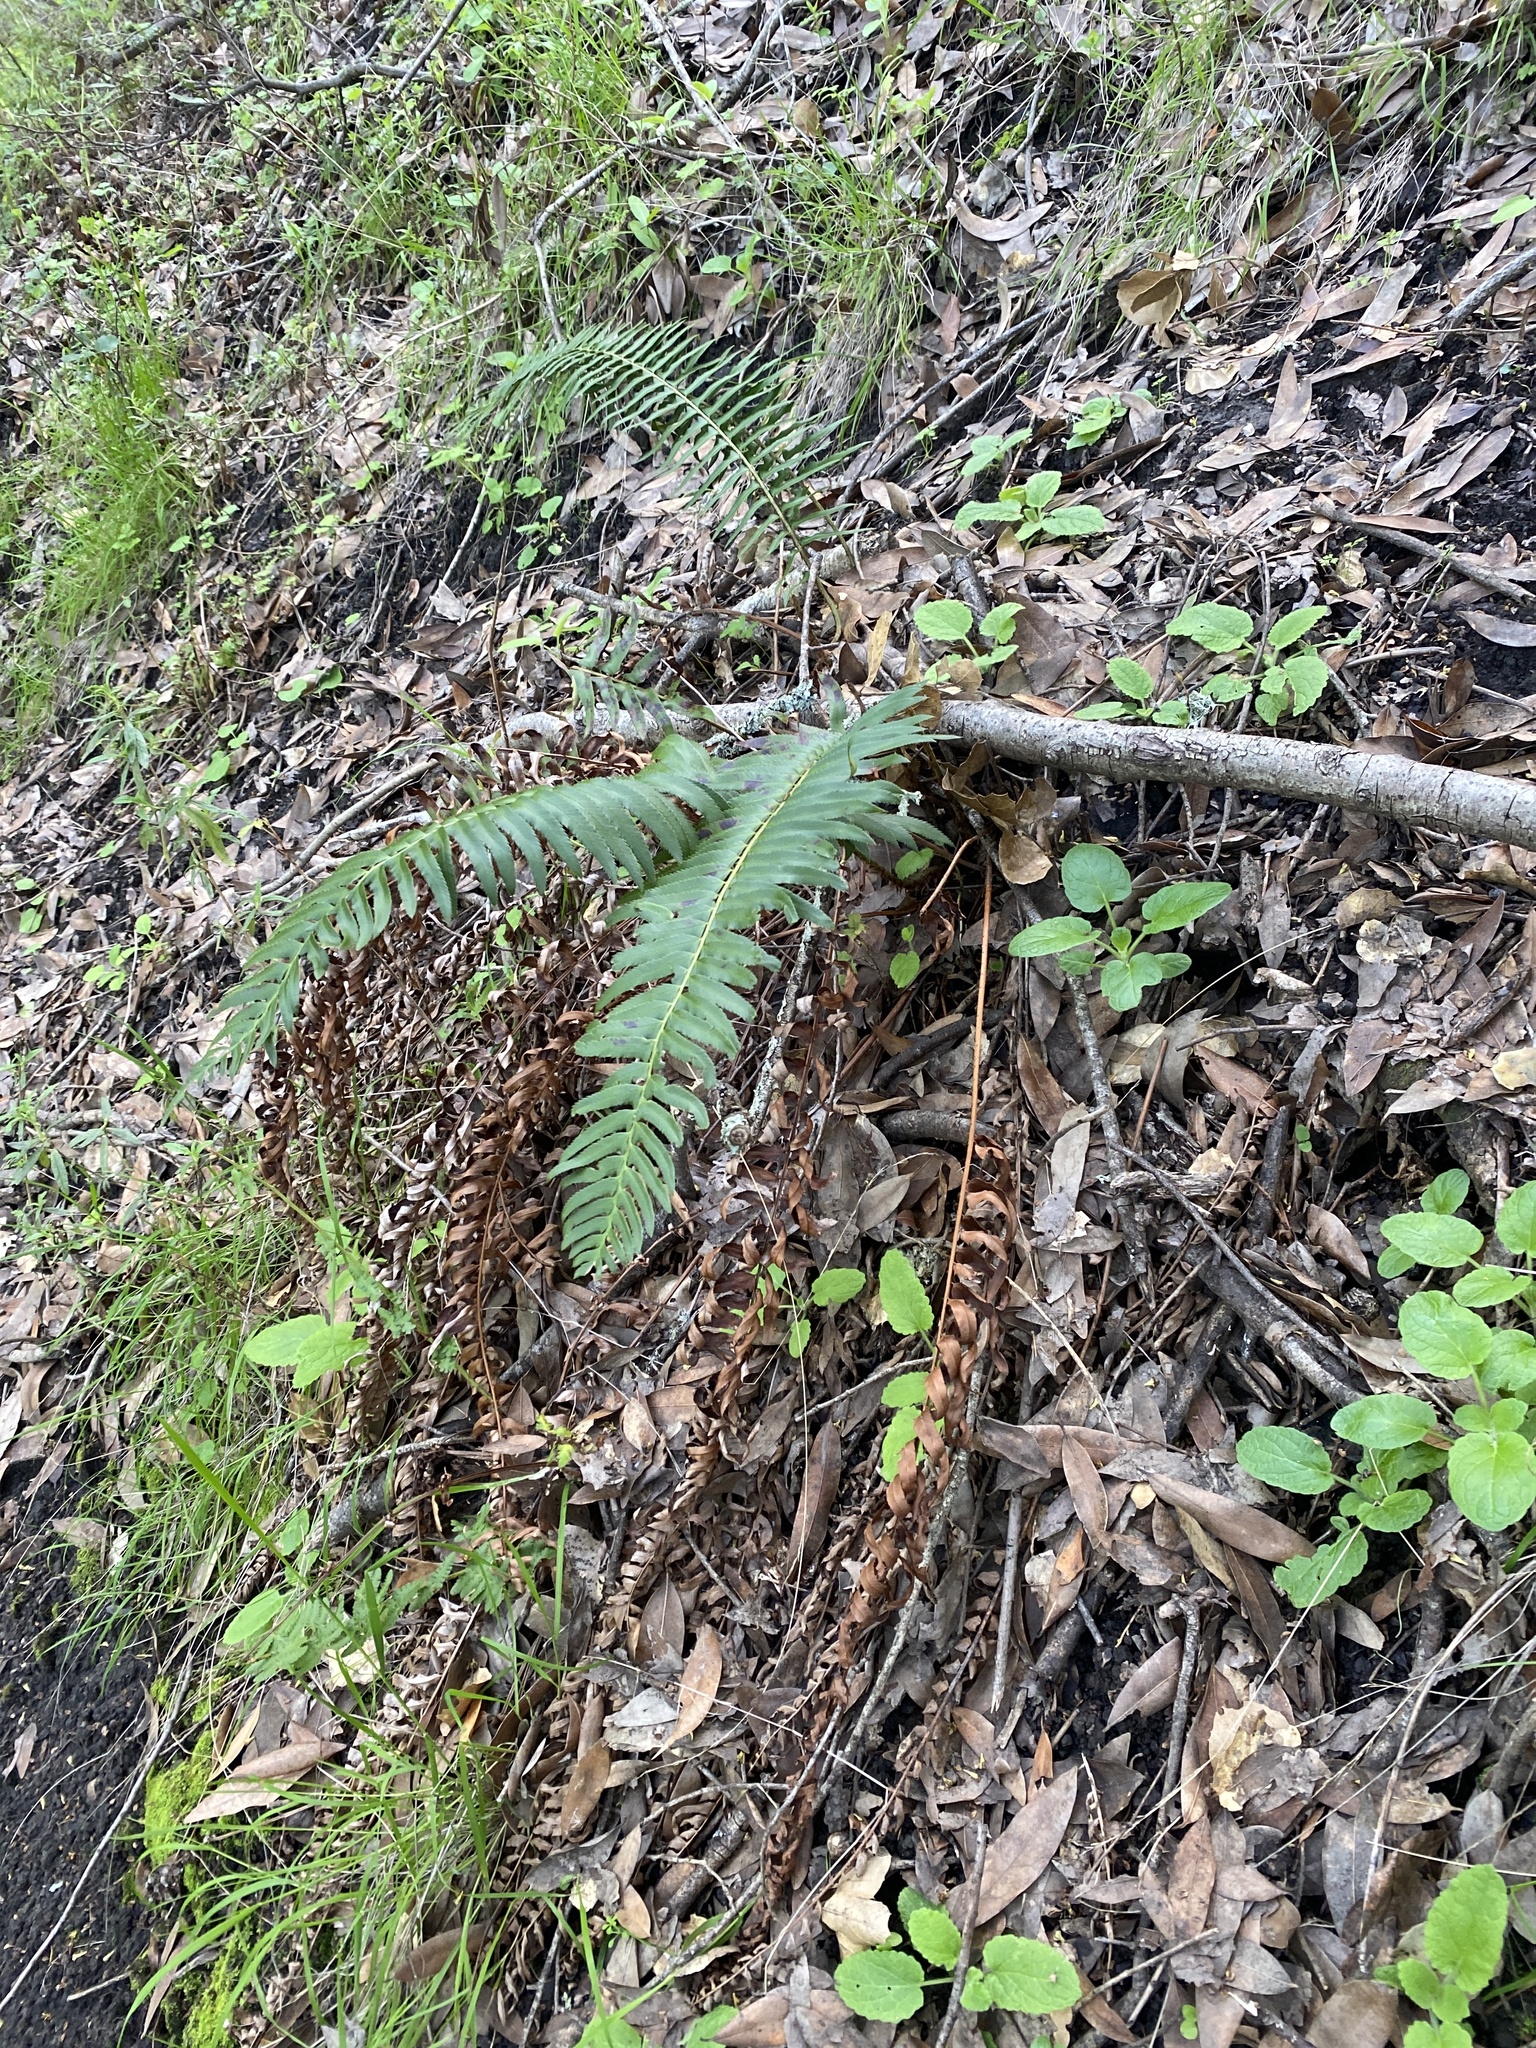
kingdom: Plantae
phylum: Tracheophyta
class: Polypodiopsida
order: Polypodiales
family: Dryopteridaceae
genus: Polystichum
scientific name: Polystichum munitum
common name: Western sword-fern
